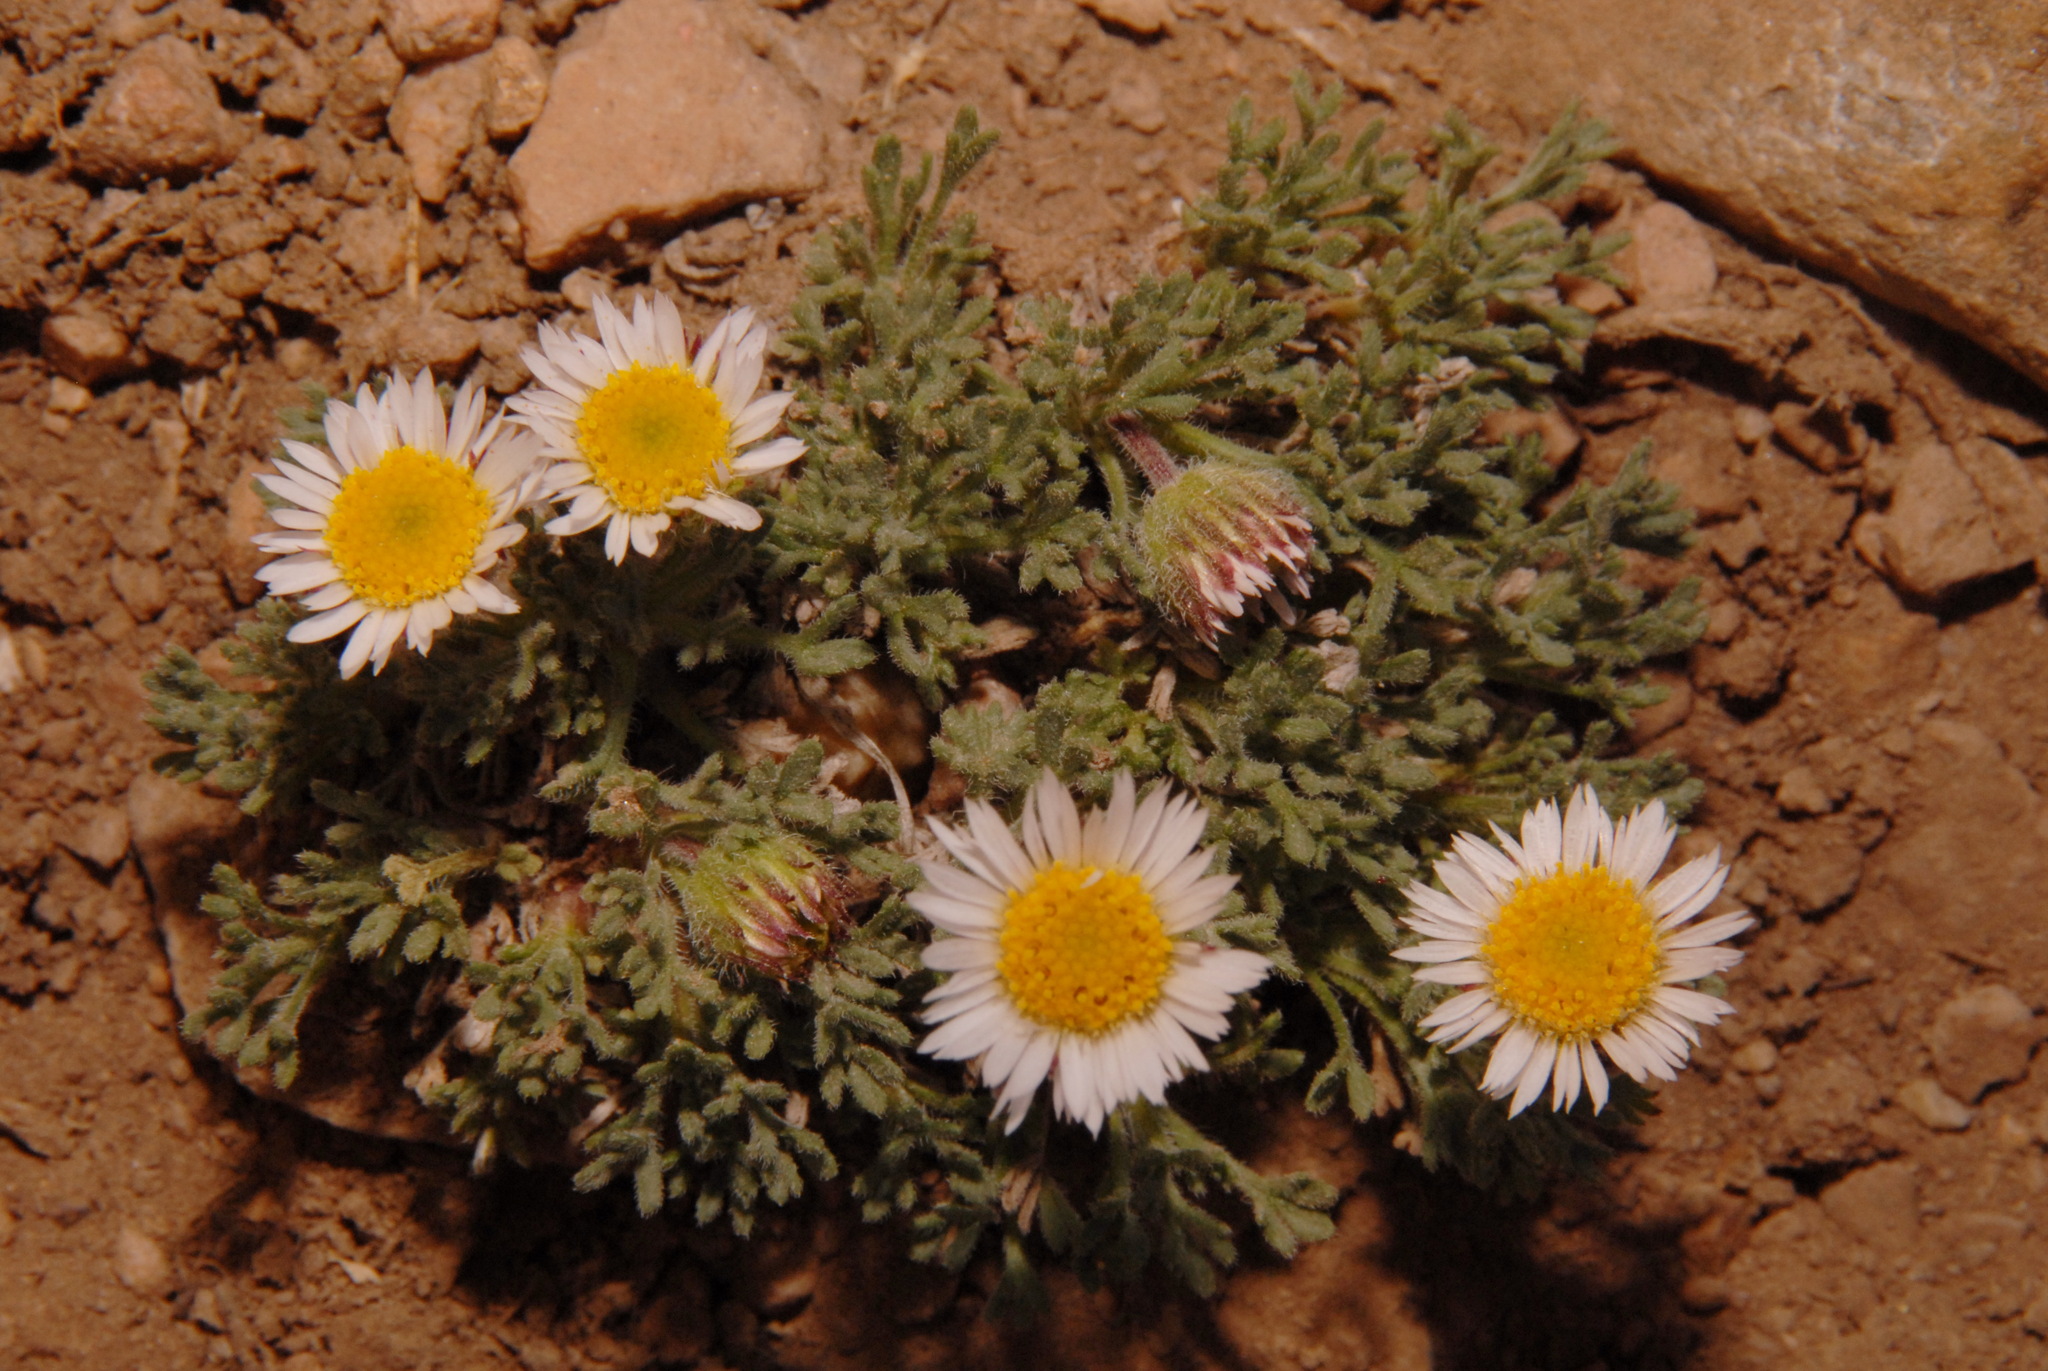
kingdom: Plantae
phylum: Tracheophyta
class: Magnoliopsida
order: Asterales
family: Asteraceae
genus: Erigeron
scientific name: Erigeron compositus
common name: Dwarf mountain fleabane
